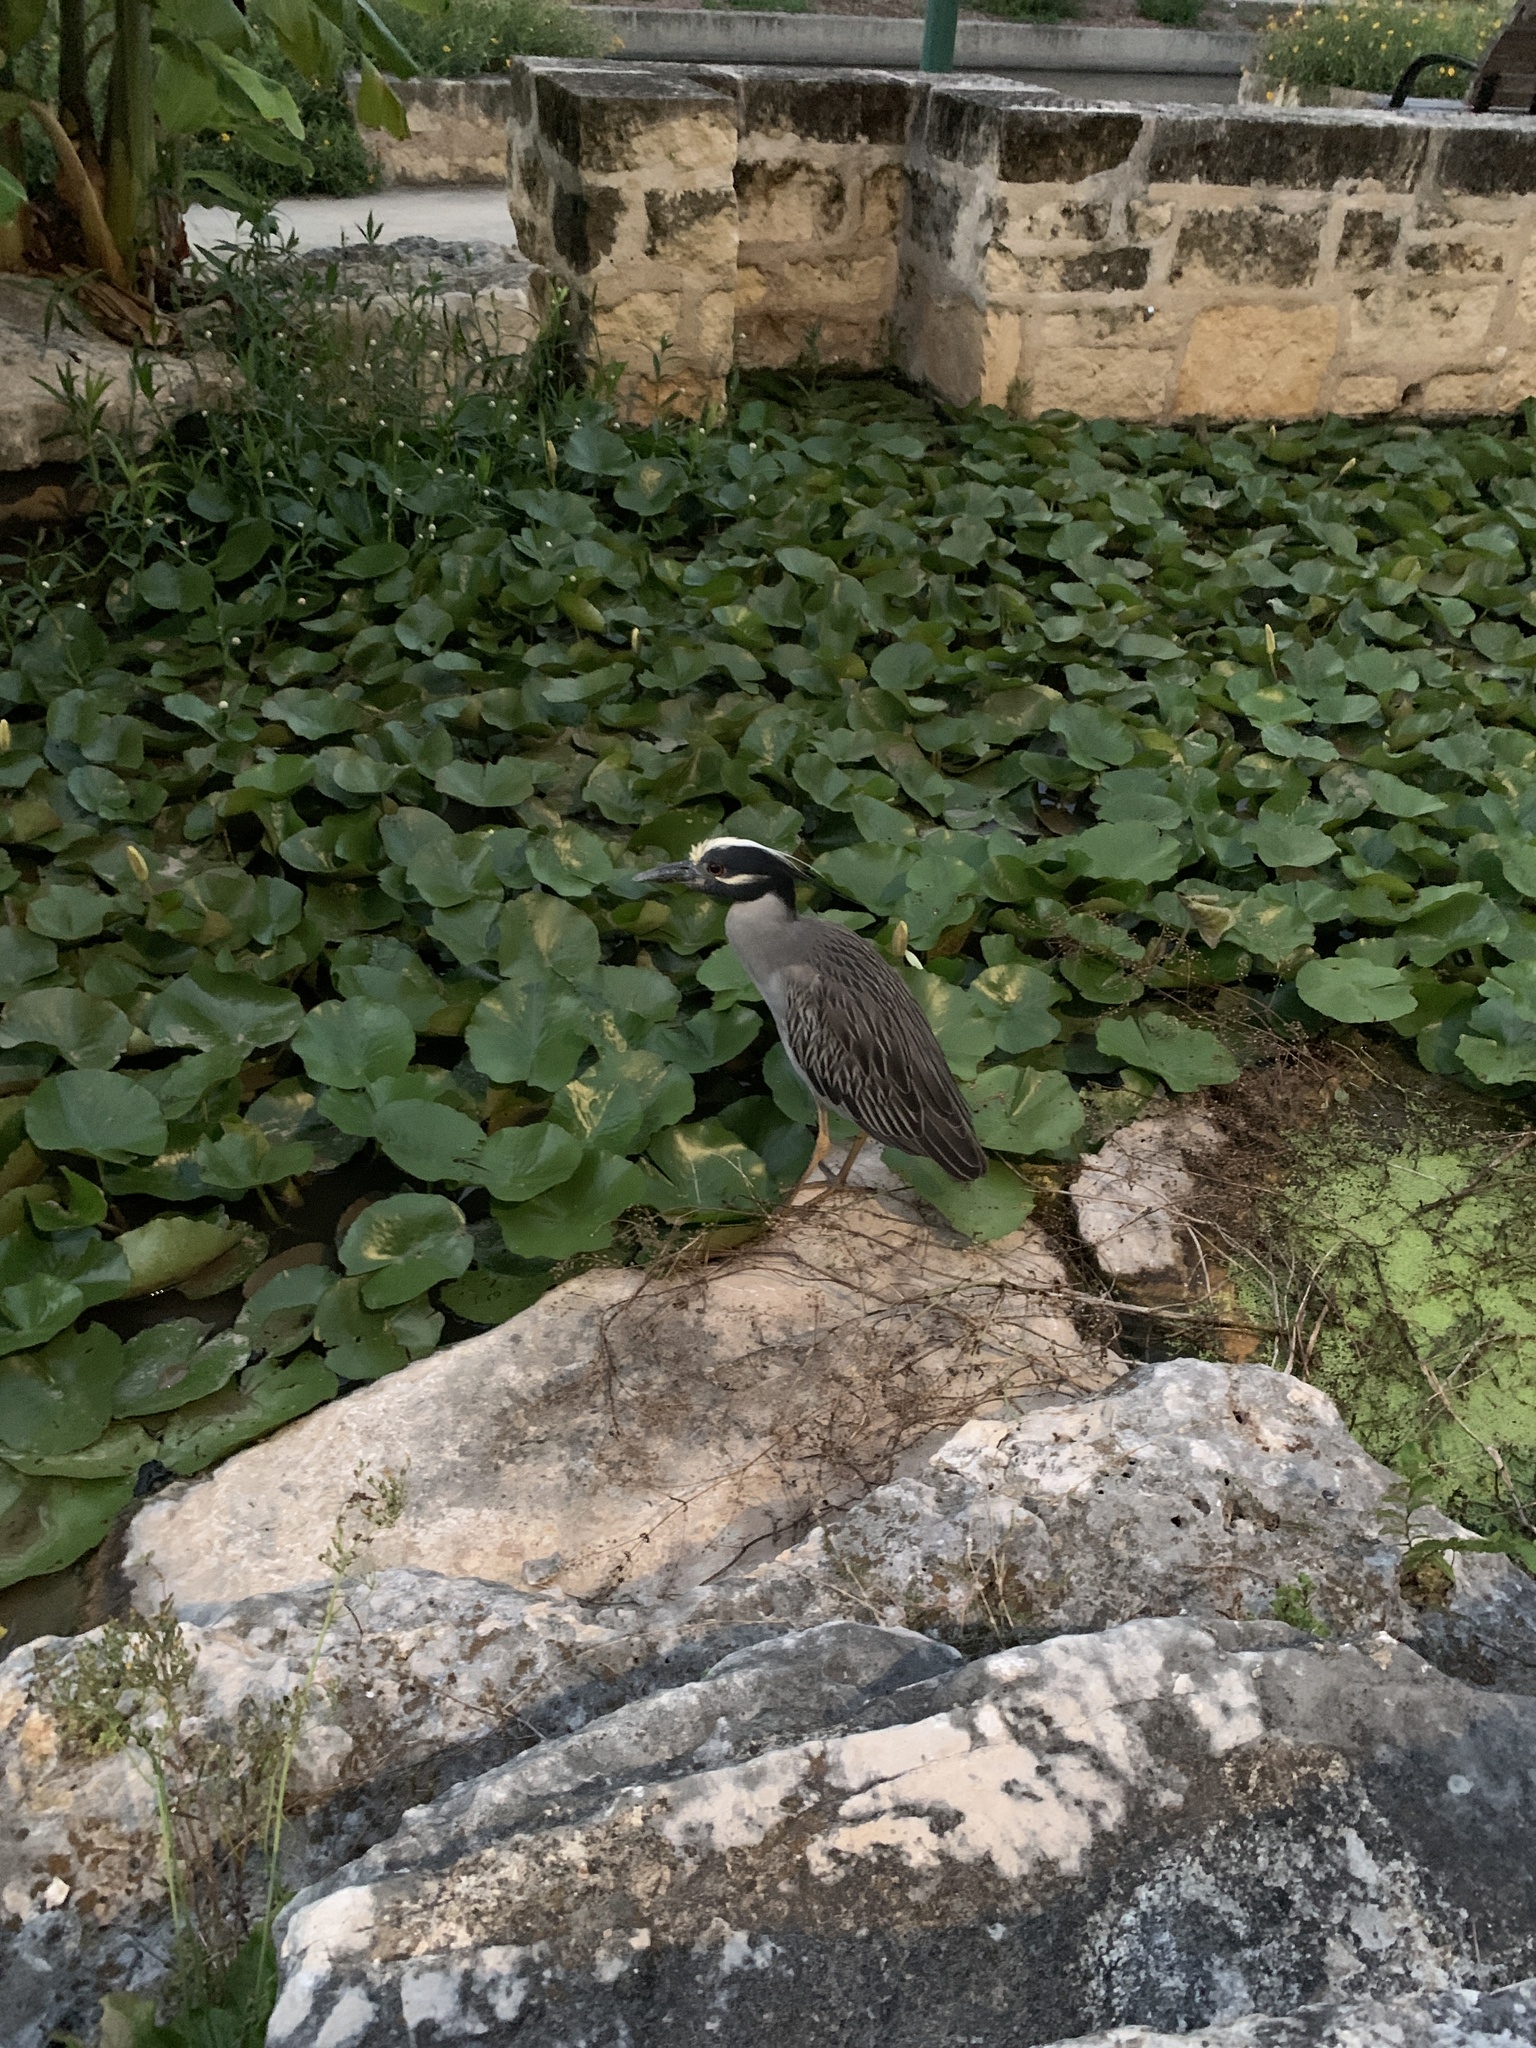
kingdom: Animalia
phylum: Chordata
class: Aves
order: Pelecaniformes
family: Ardeidae
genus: Nyctanassa
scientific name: Nyctanassa violacea
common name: Yellow-crowned night heron
